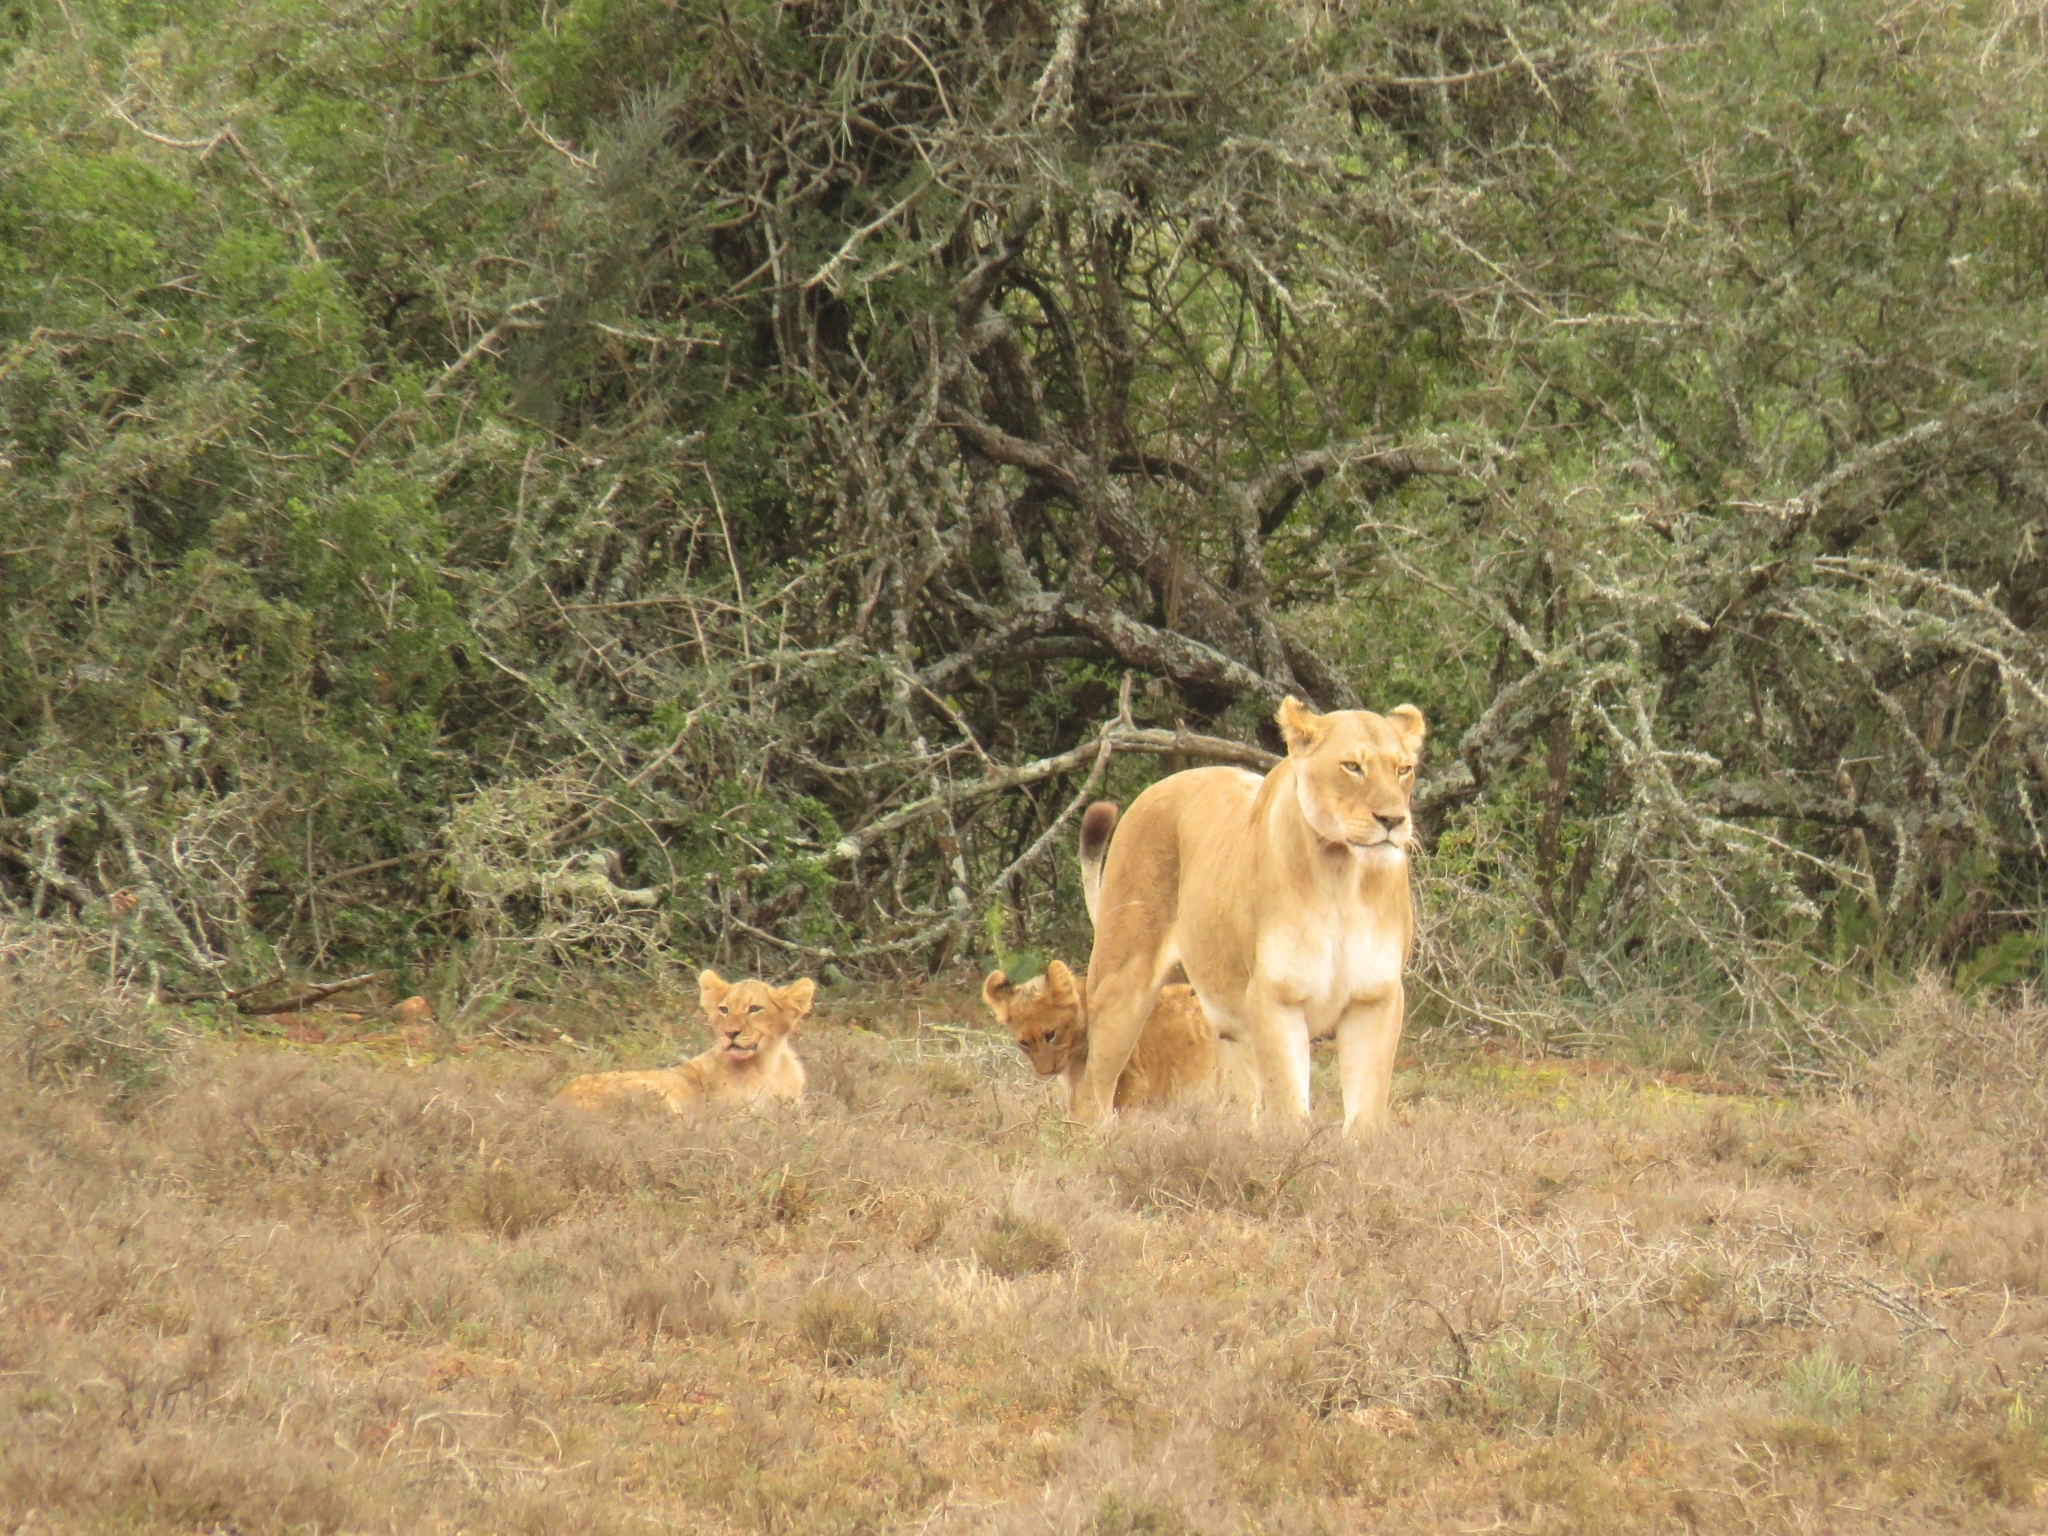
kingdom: Animalia
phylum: Chordata
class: Mammalia
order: Carnivora
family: Felidae
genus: Panthera
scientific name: Panthera leo
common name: Lion
